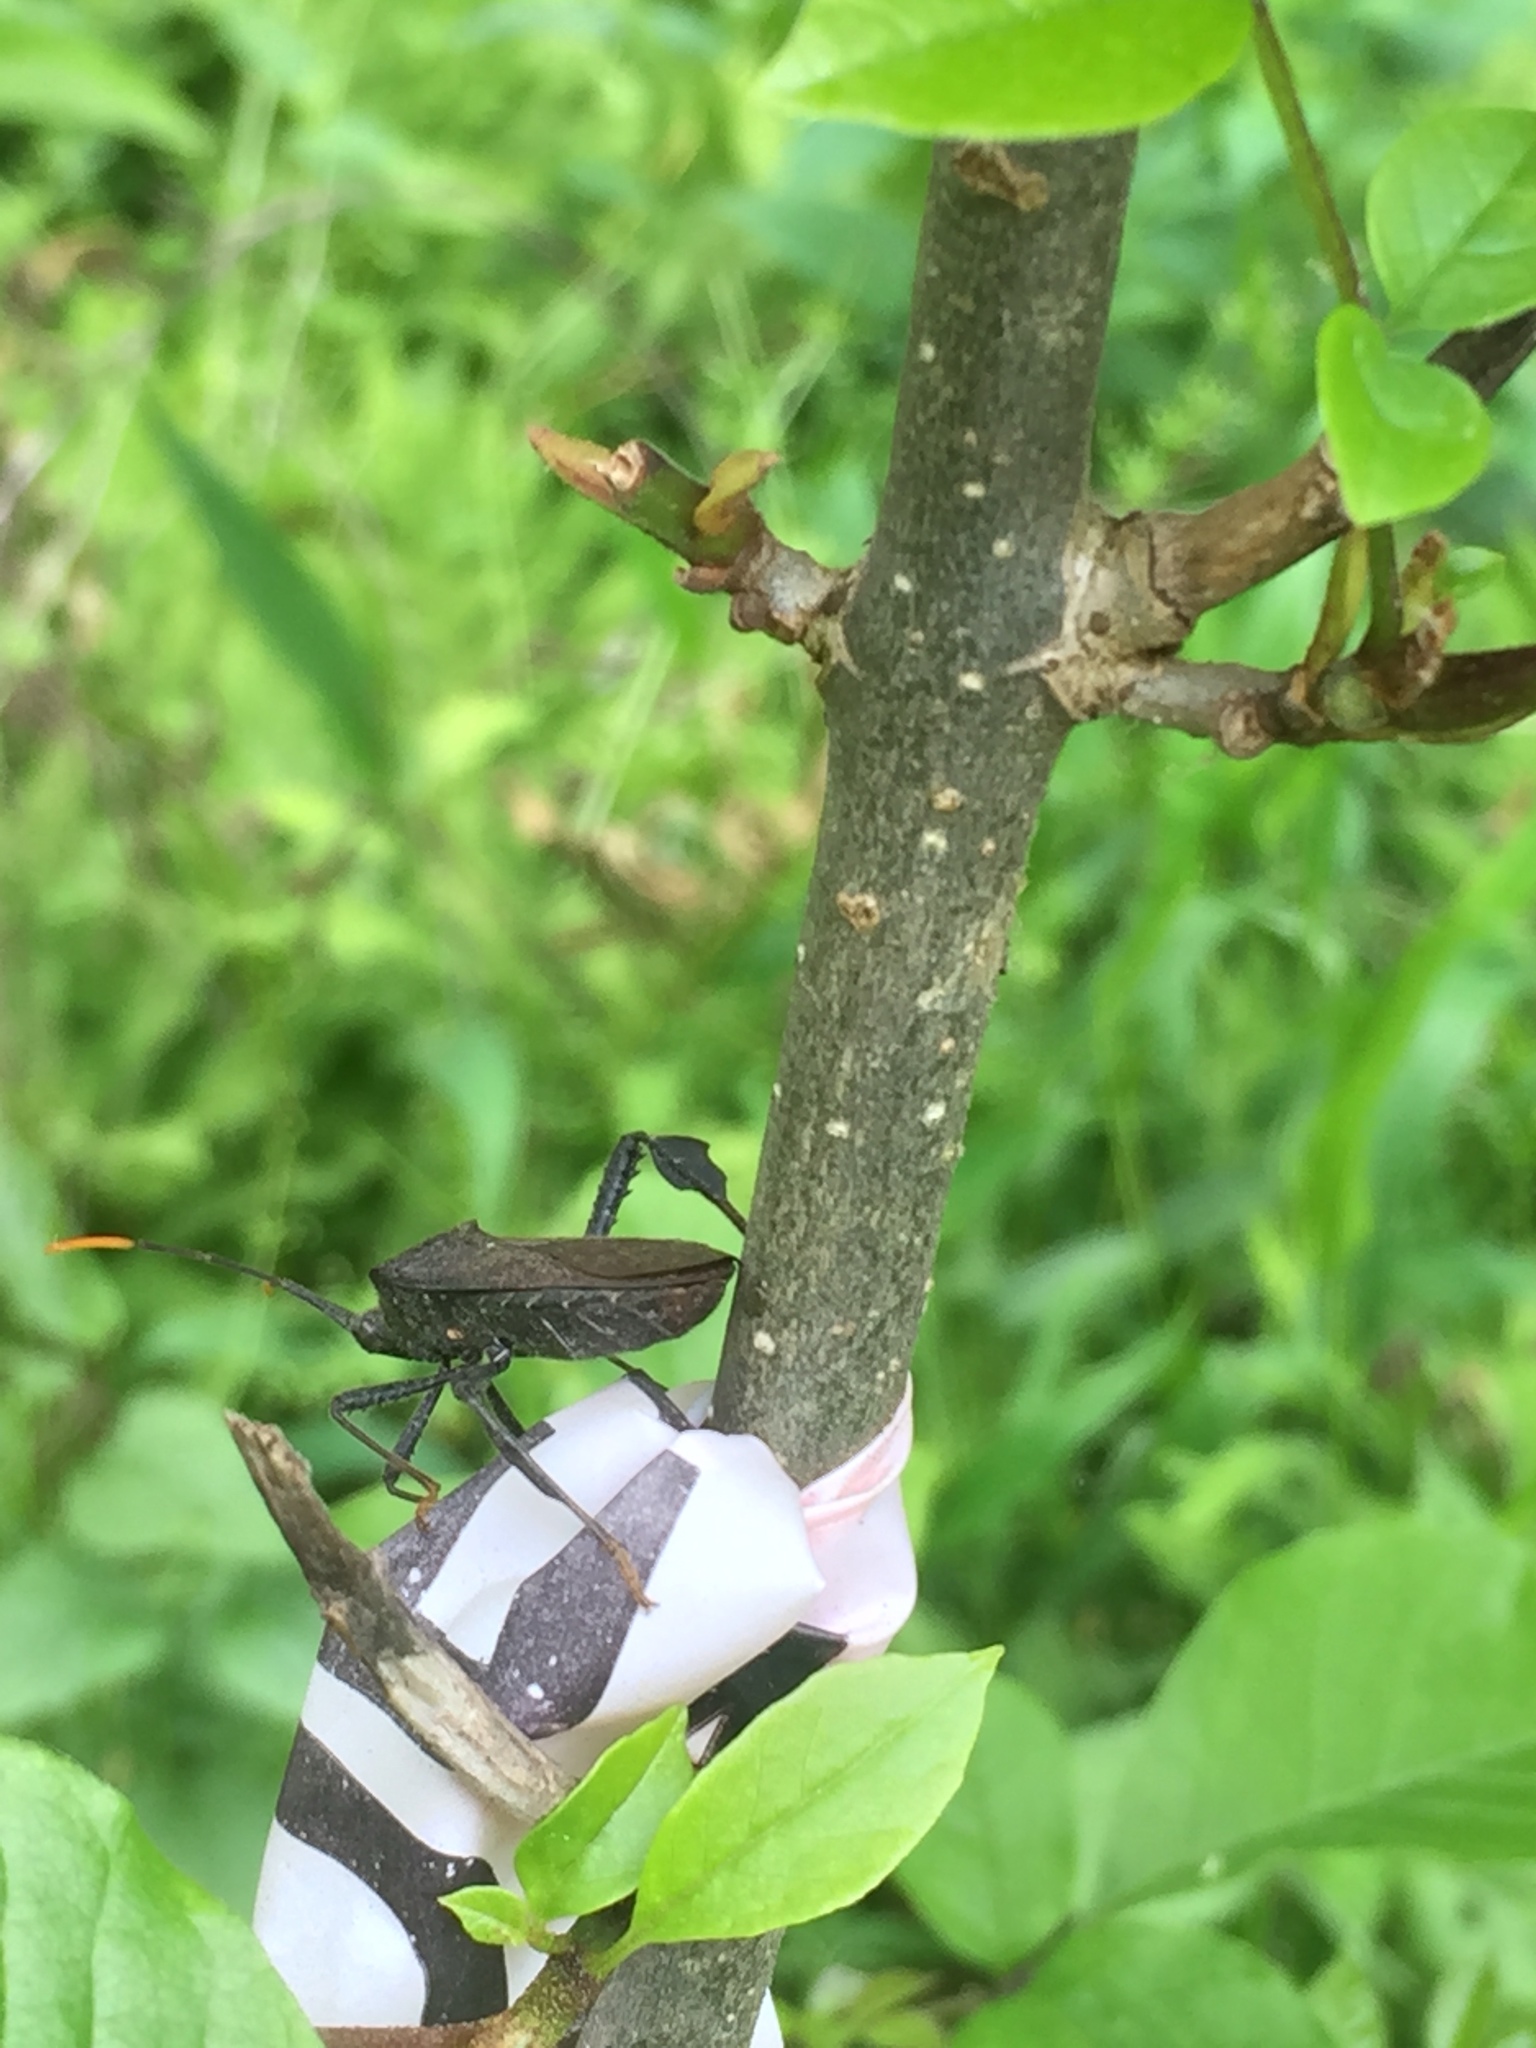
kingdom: Animalia
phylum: Arthropoda
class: Insecta
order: Hemiptera
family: Coreidae
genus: Acanthocephala
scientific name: Acanthocephala terminalis
